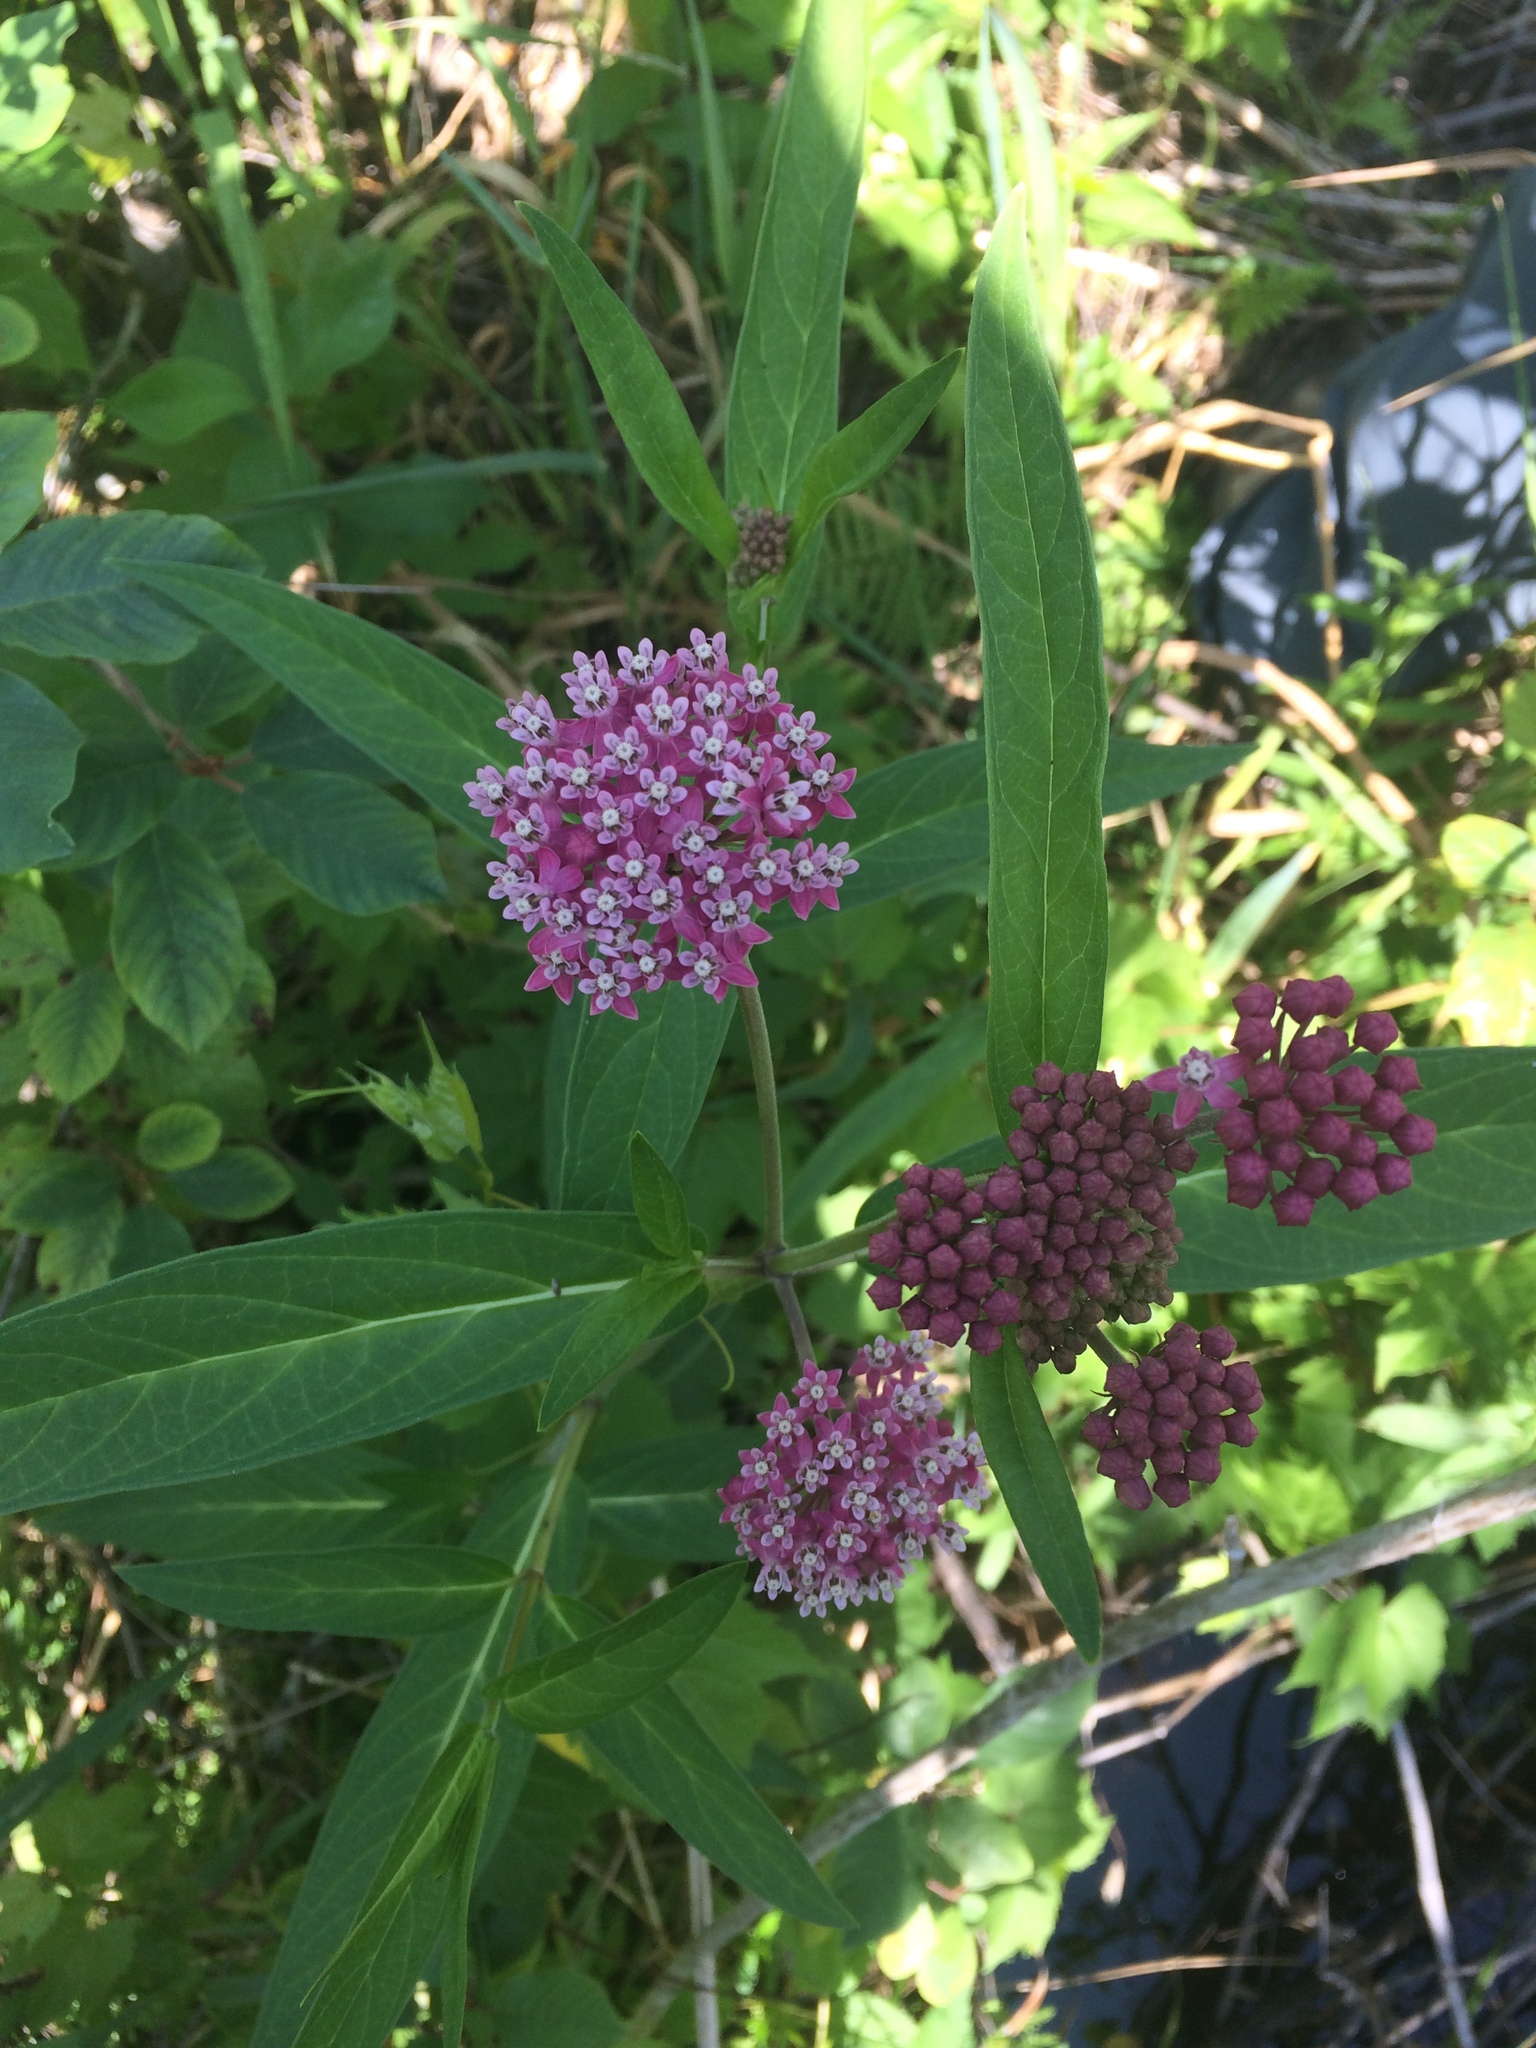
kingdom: Plantae
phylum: Tracheophyta
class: Magnoliopsida
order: Gentianales
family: Apocynaceae
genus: Asclepias
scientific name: Asclepias incarnata
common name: Swamp milkweed
